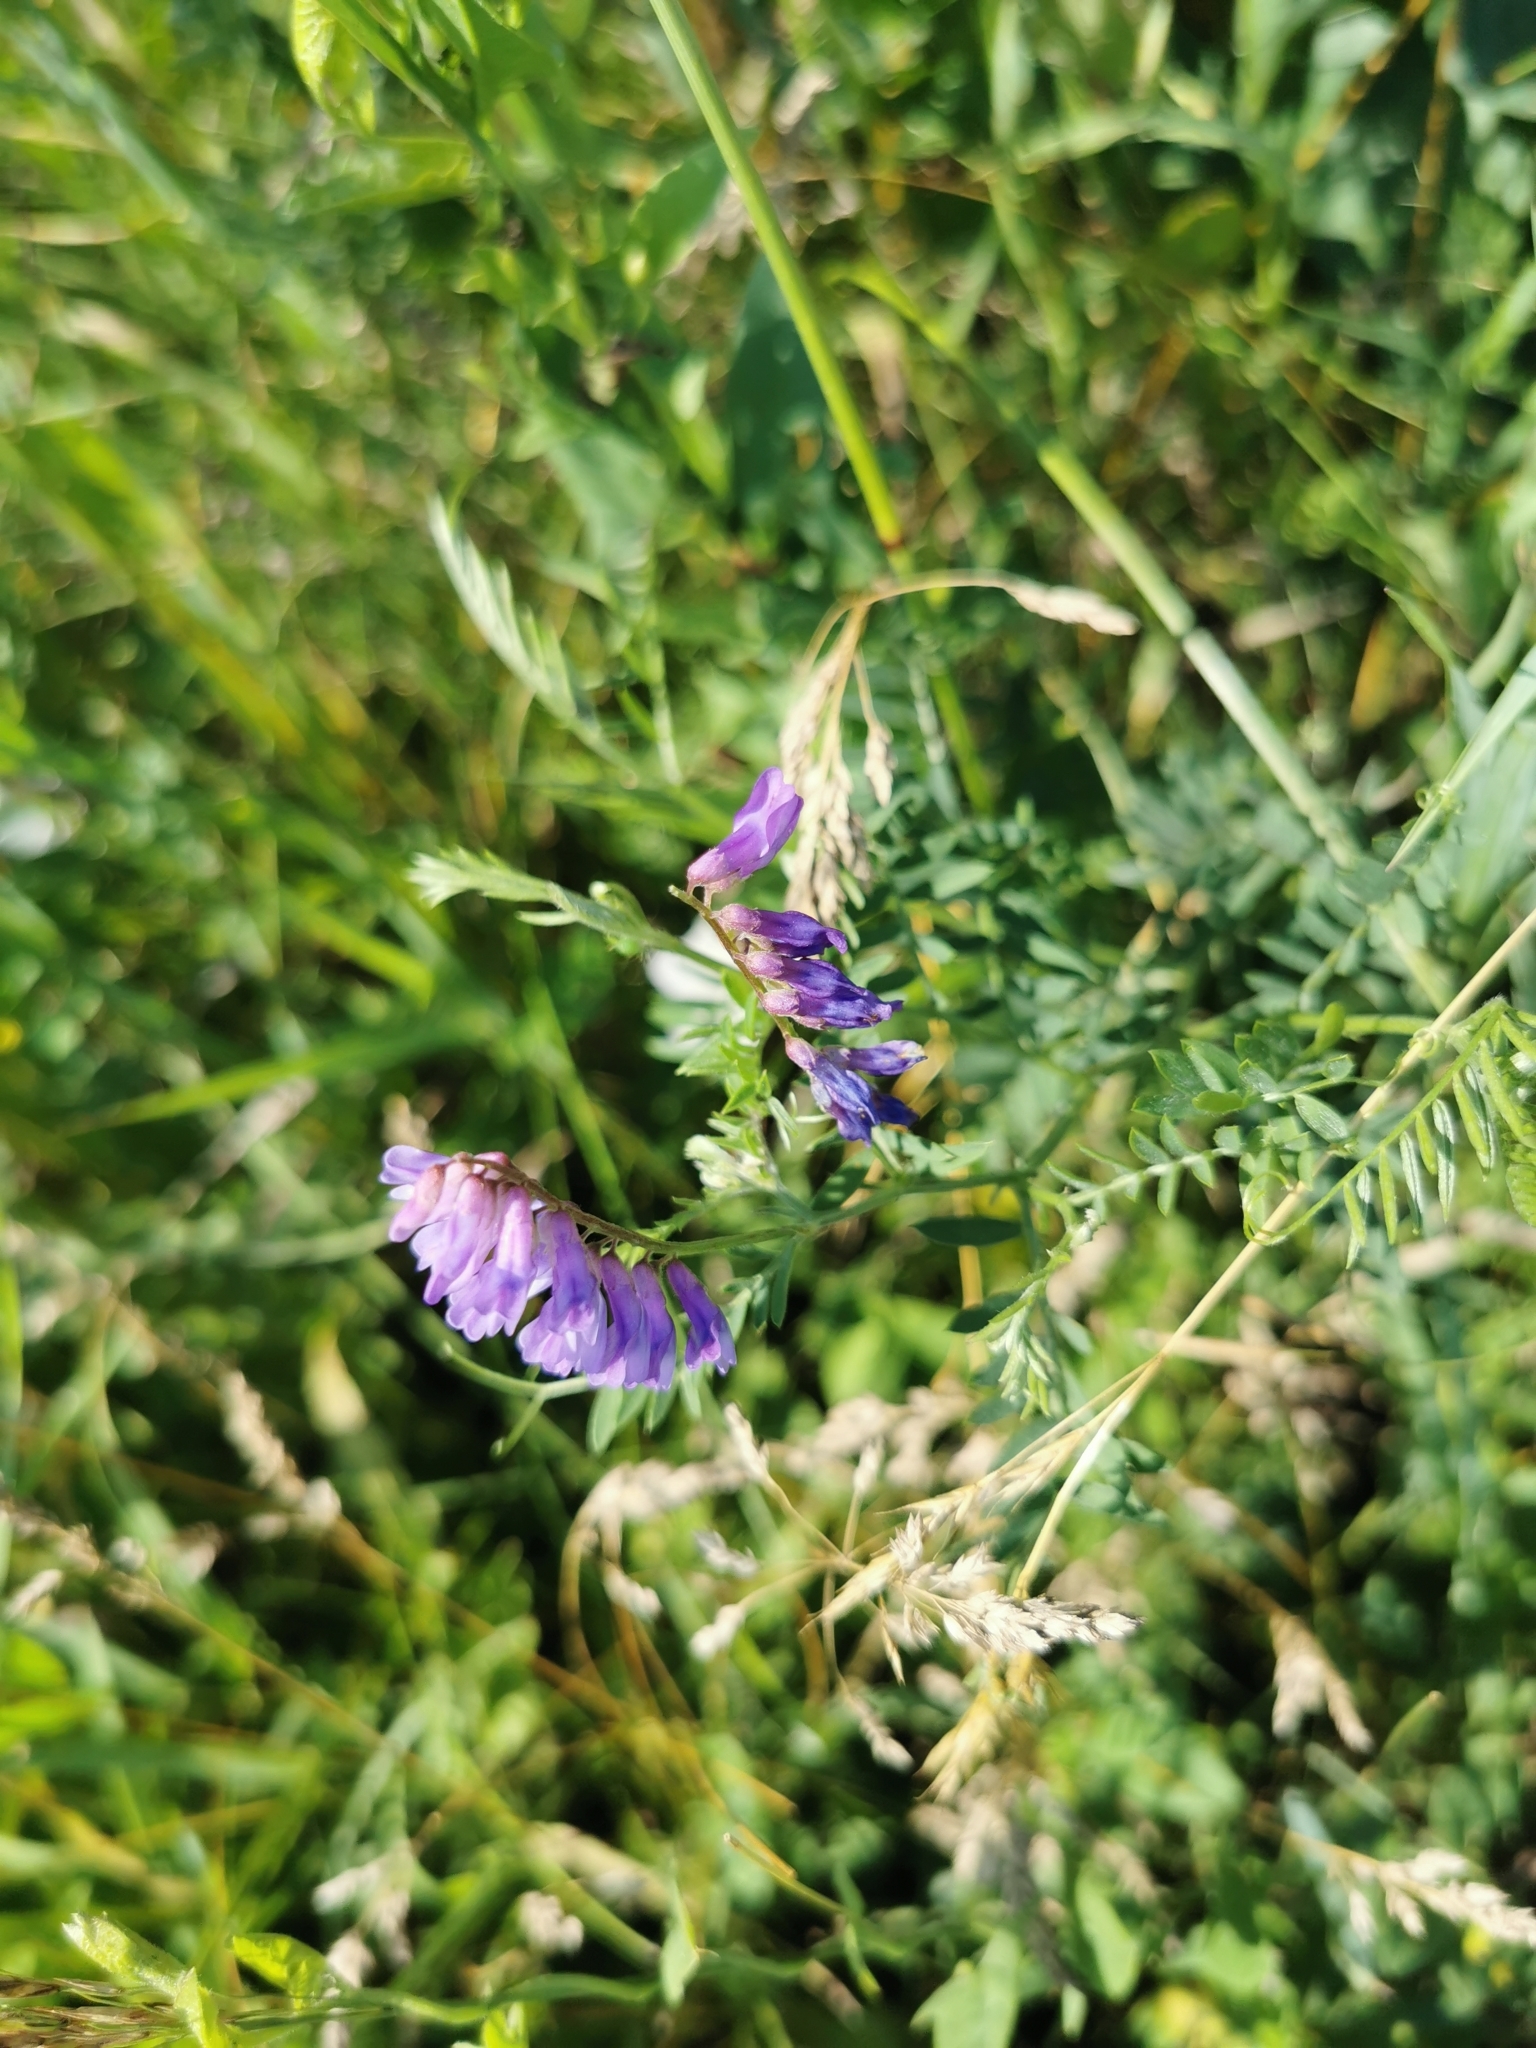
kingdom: Plantae
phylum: Tracheophyta
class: Magnoliopsida
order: Fabales
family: Fabaceae
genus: Vicia
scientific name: Vicia cracca
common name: Bird vetch
